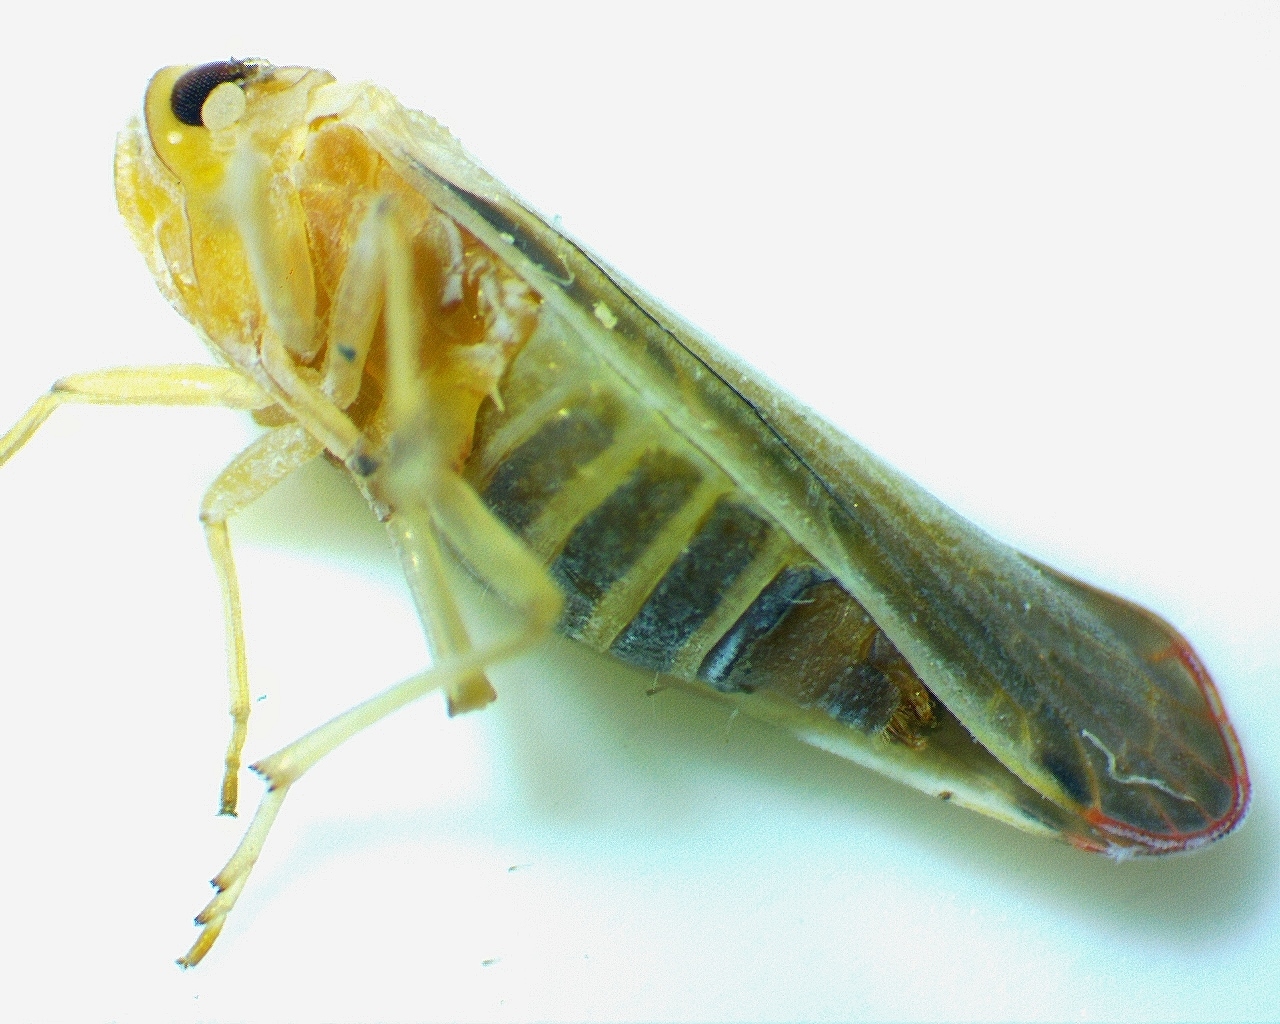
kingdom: Animalia
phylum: Arthropoda
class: Insecta
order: Hemiptera
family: Derbidae
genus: Omolicna
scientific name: Omolicna uhleri
